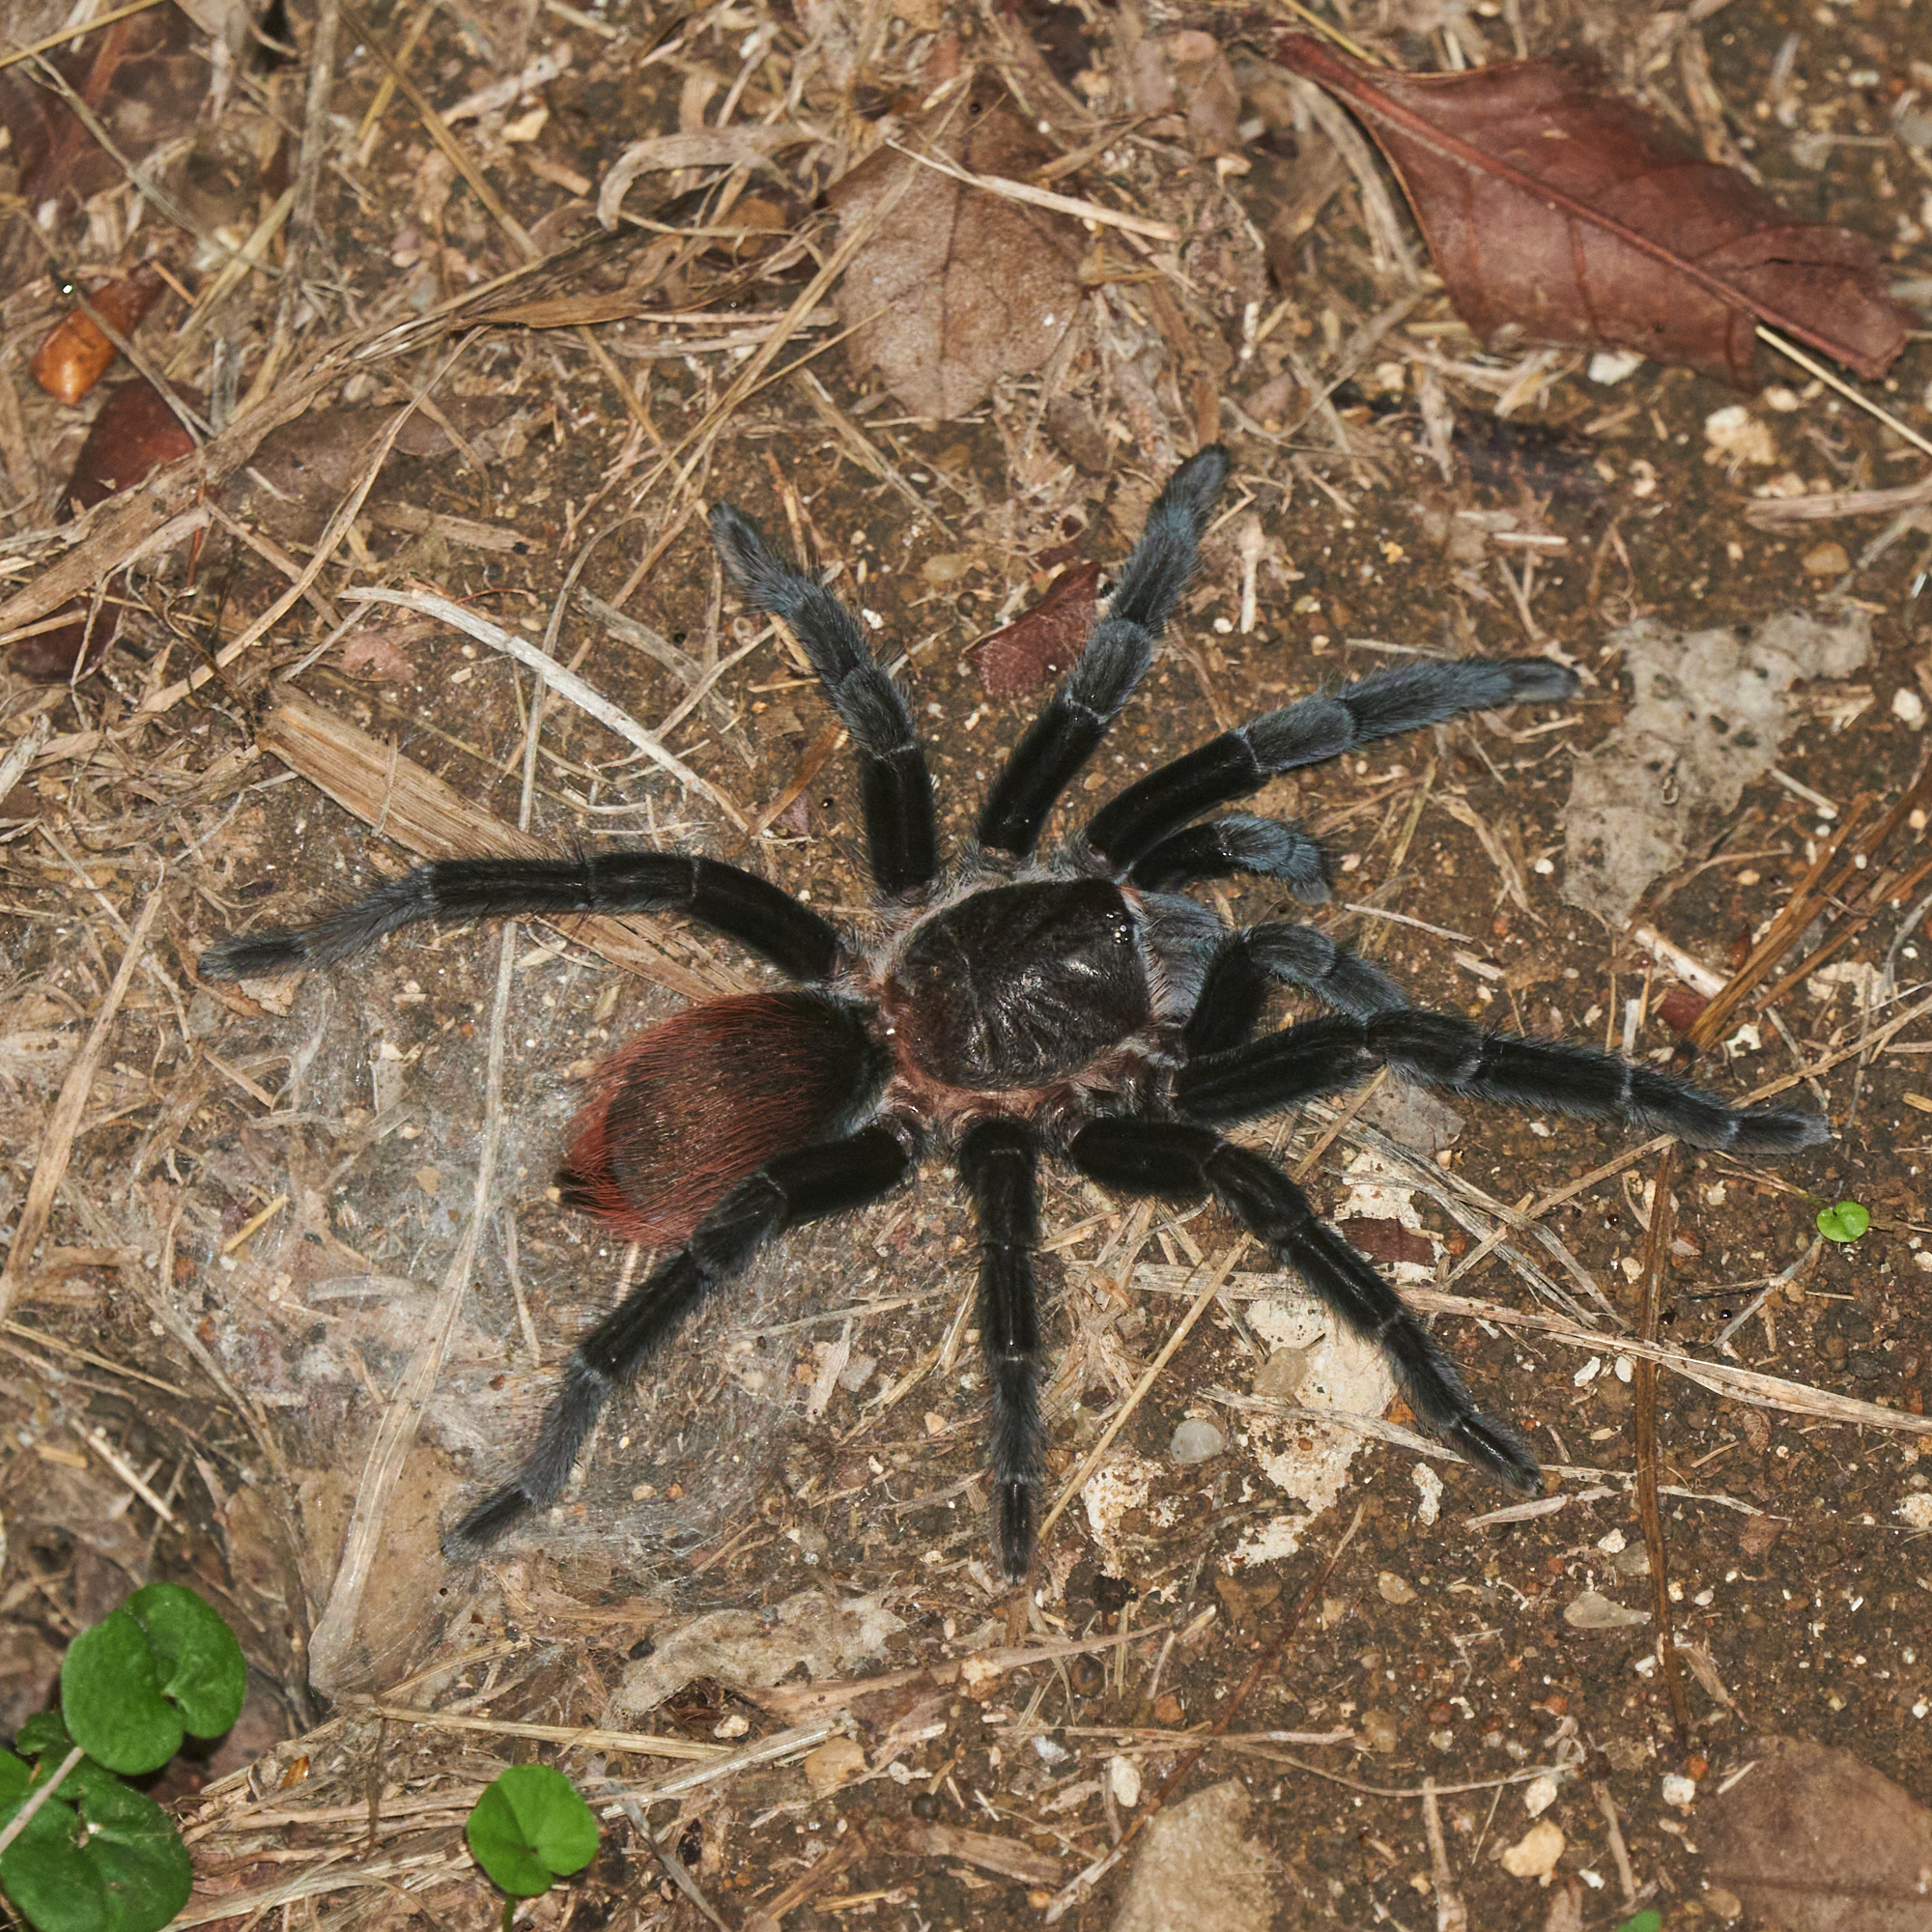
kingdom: Animalia
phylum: Arthropoda
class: Arachnida
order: Araneae
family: Theraphosidae
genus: Tliltocatl
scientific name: Tliltocatl vagans
